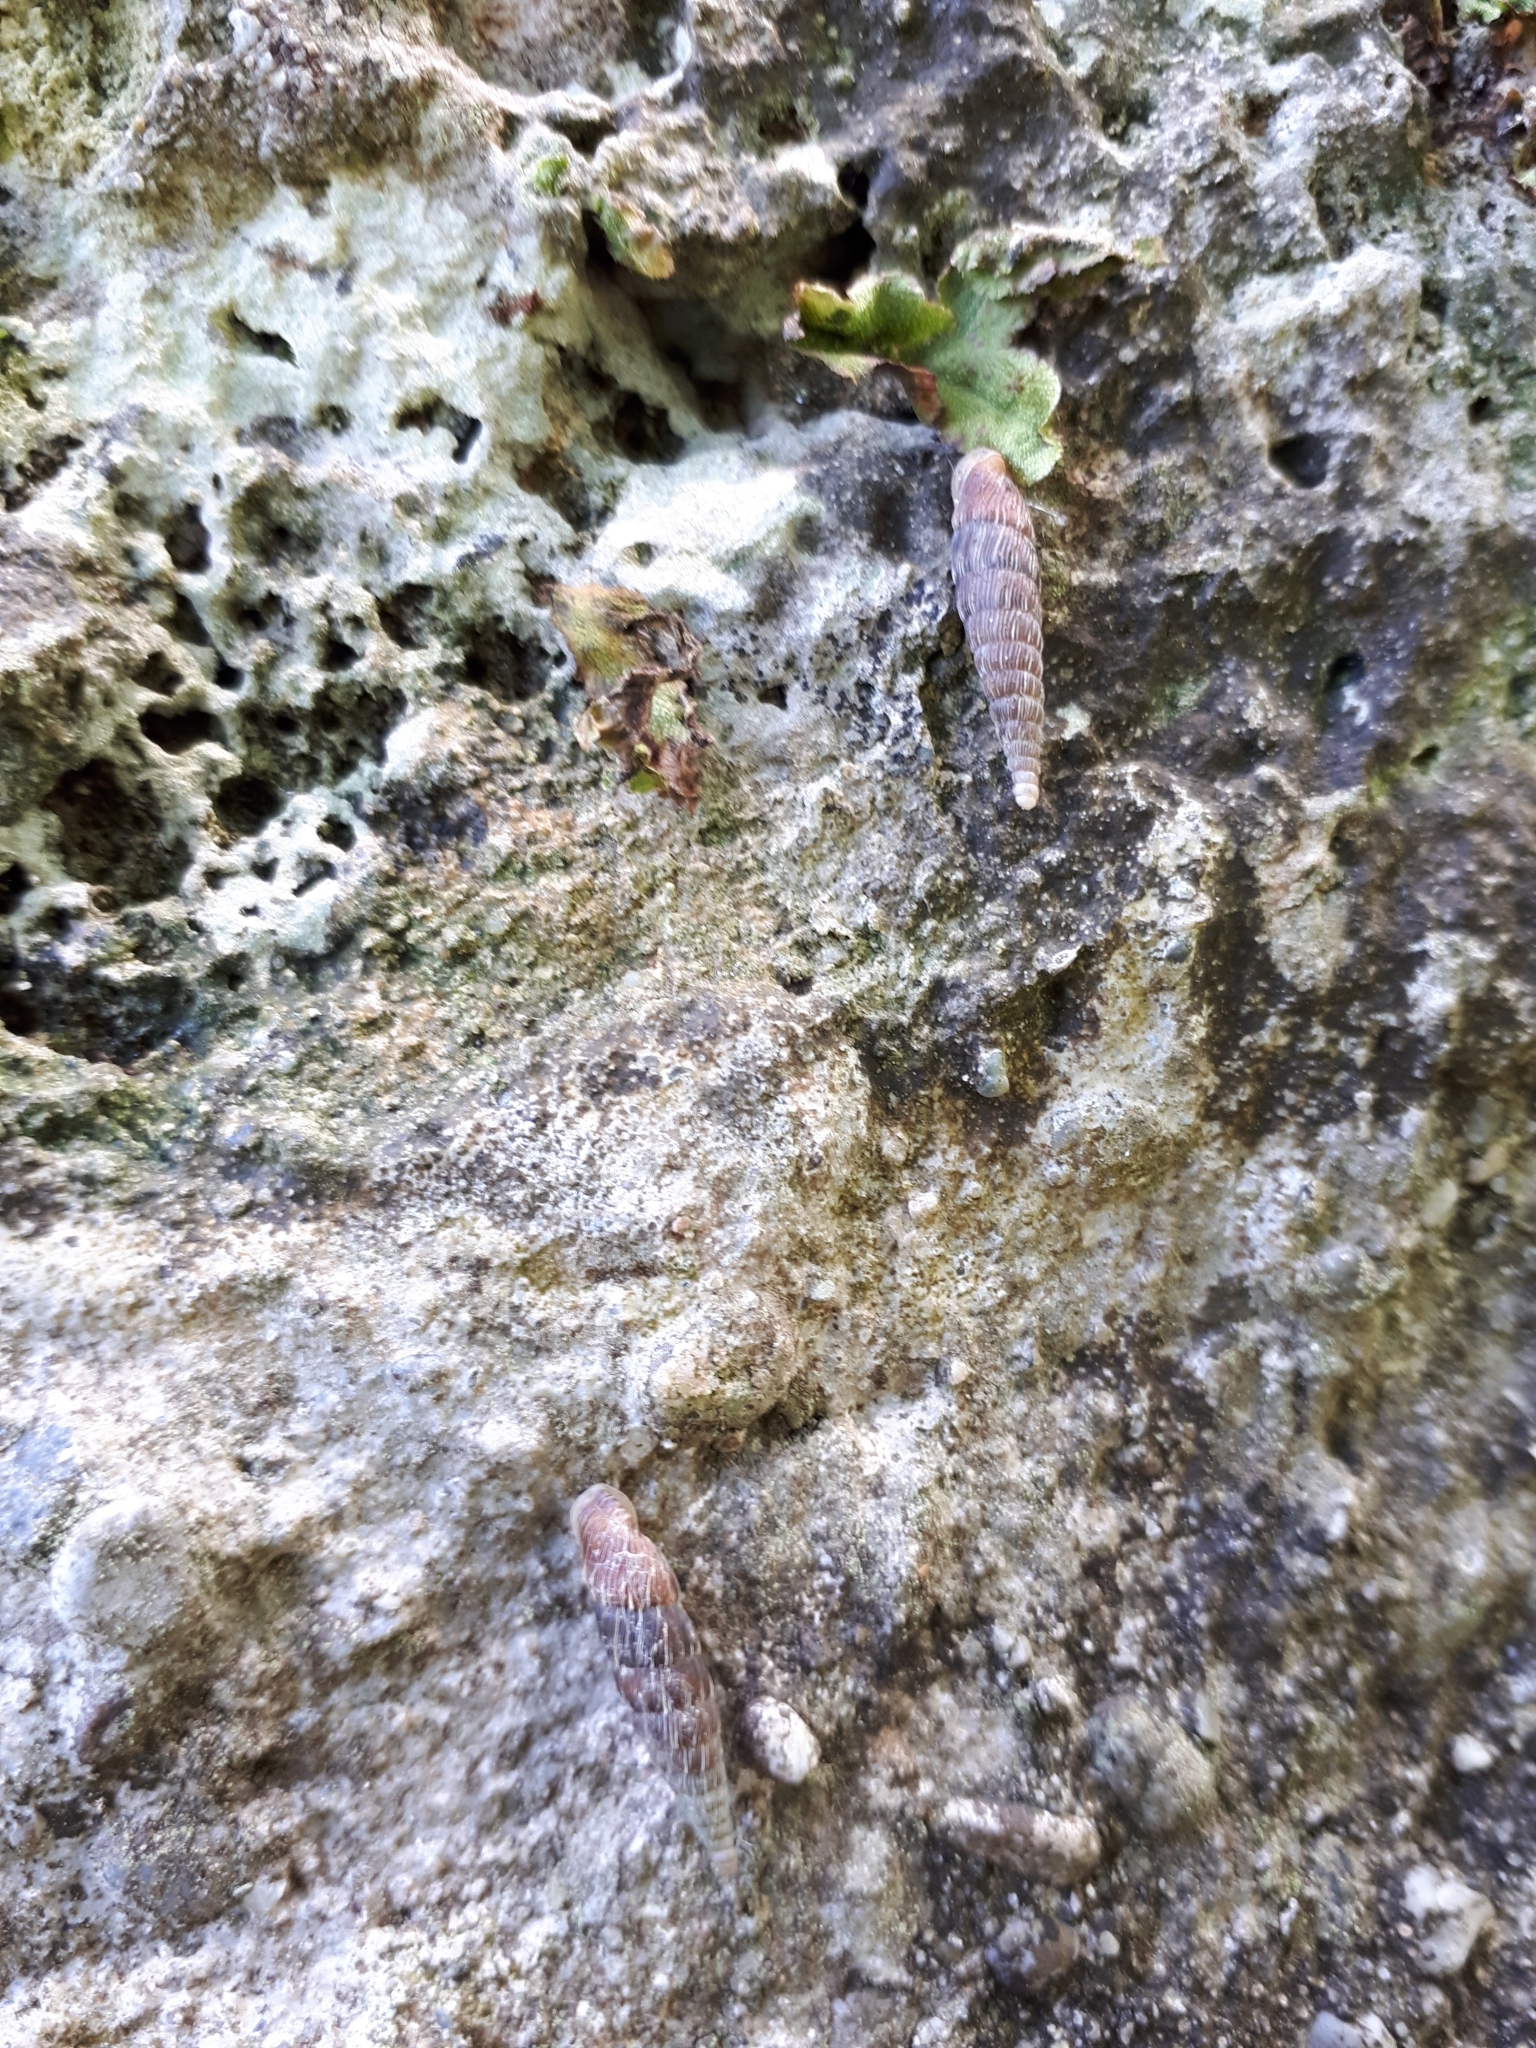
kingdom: Animalia
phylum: Mollusca
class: Gastropoda
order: Stylommatophora
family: Clausiliidae
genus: Alinda
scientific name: Alinda biplicata
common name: Thames door snail
